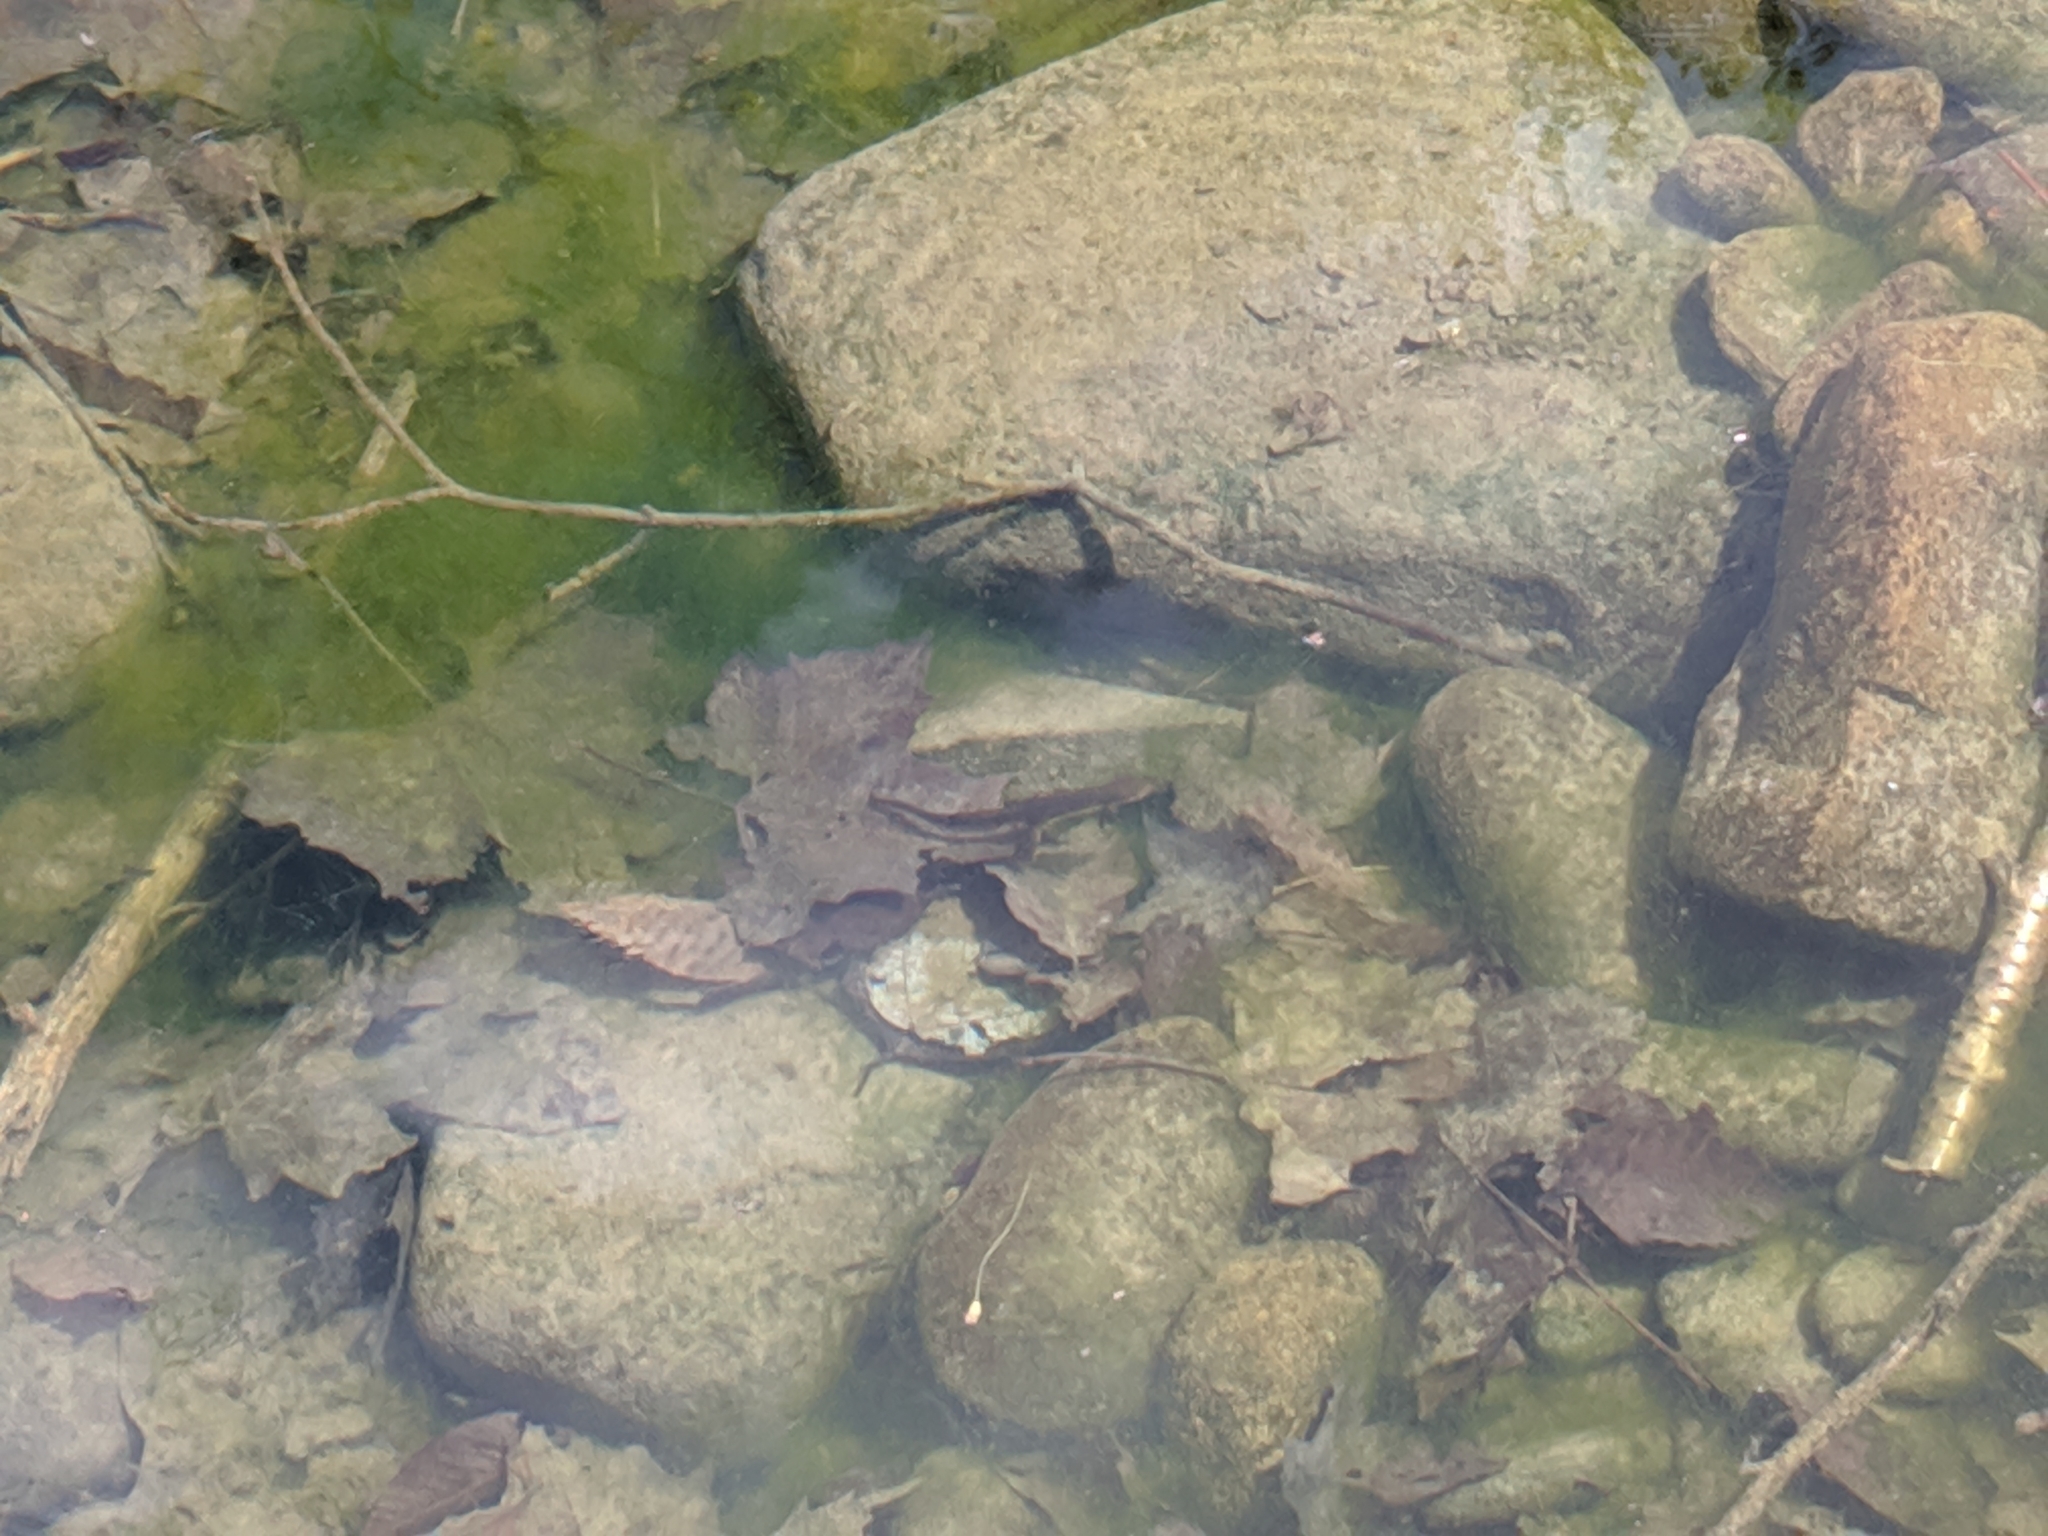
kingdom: Animalia
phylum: Chordata
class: Amphibia
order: Caudata
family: Salamandridae
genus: Notophthalmus
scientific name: Notophthalmus viridescens
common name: Eastern newt
